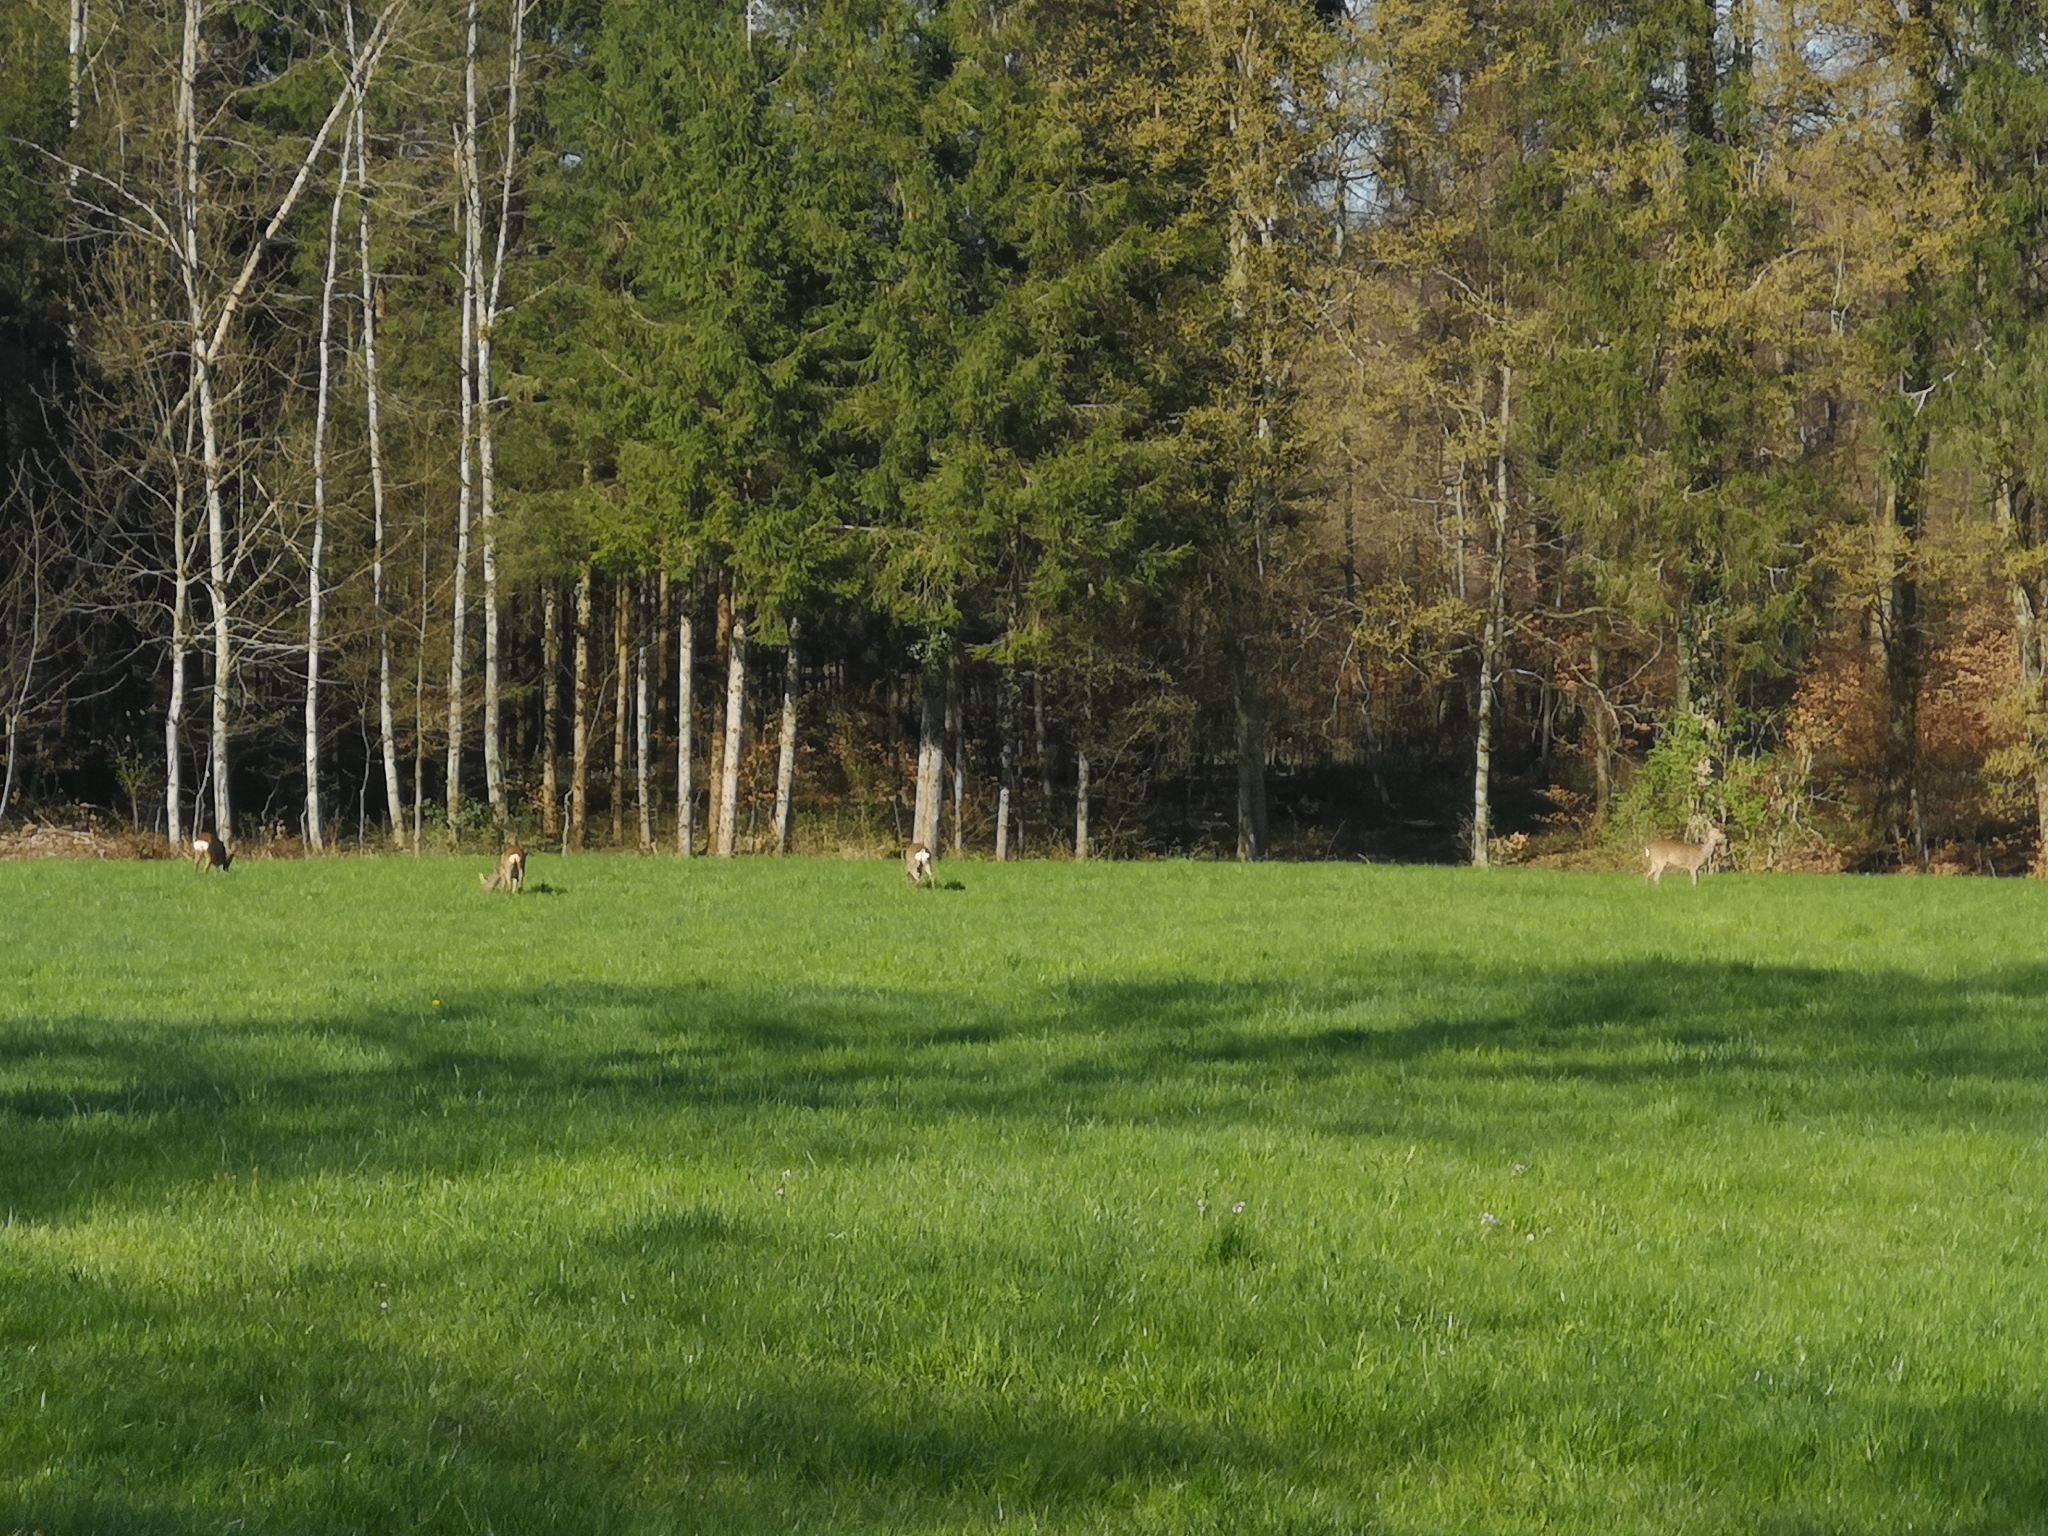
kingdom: Animalia
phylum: Chordata
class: Mammalia
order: Artiodactyla
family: Cervidae
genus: Capreolus
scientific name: Capreolus capreolus
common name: Western roe deer
